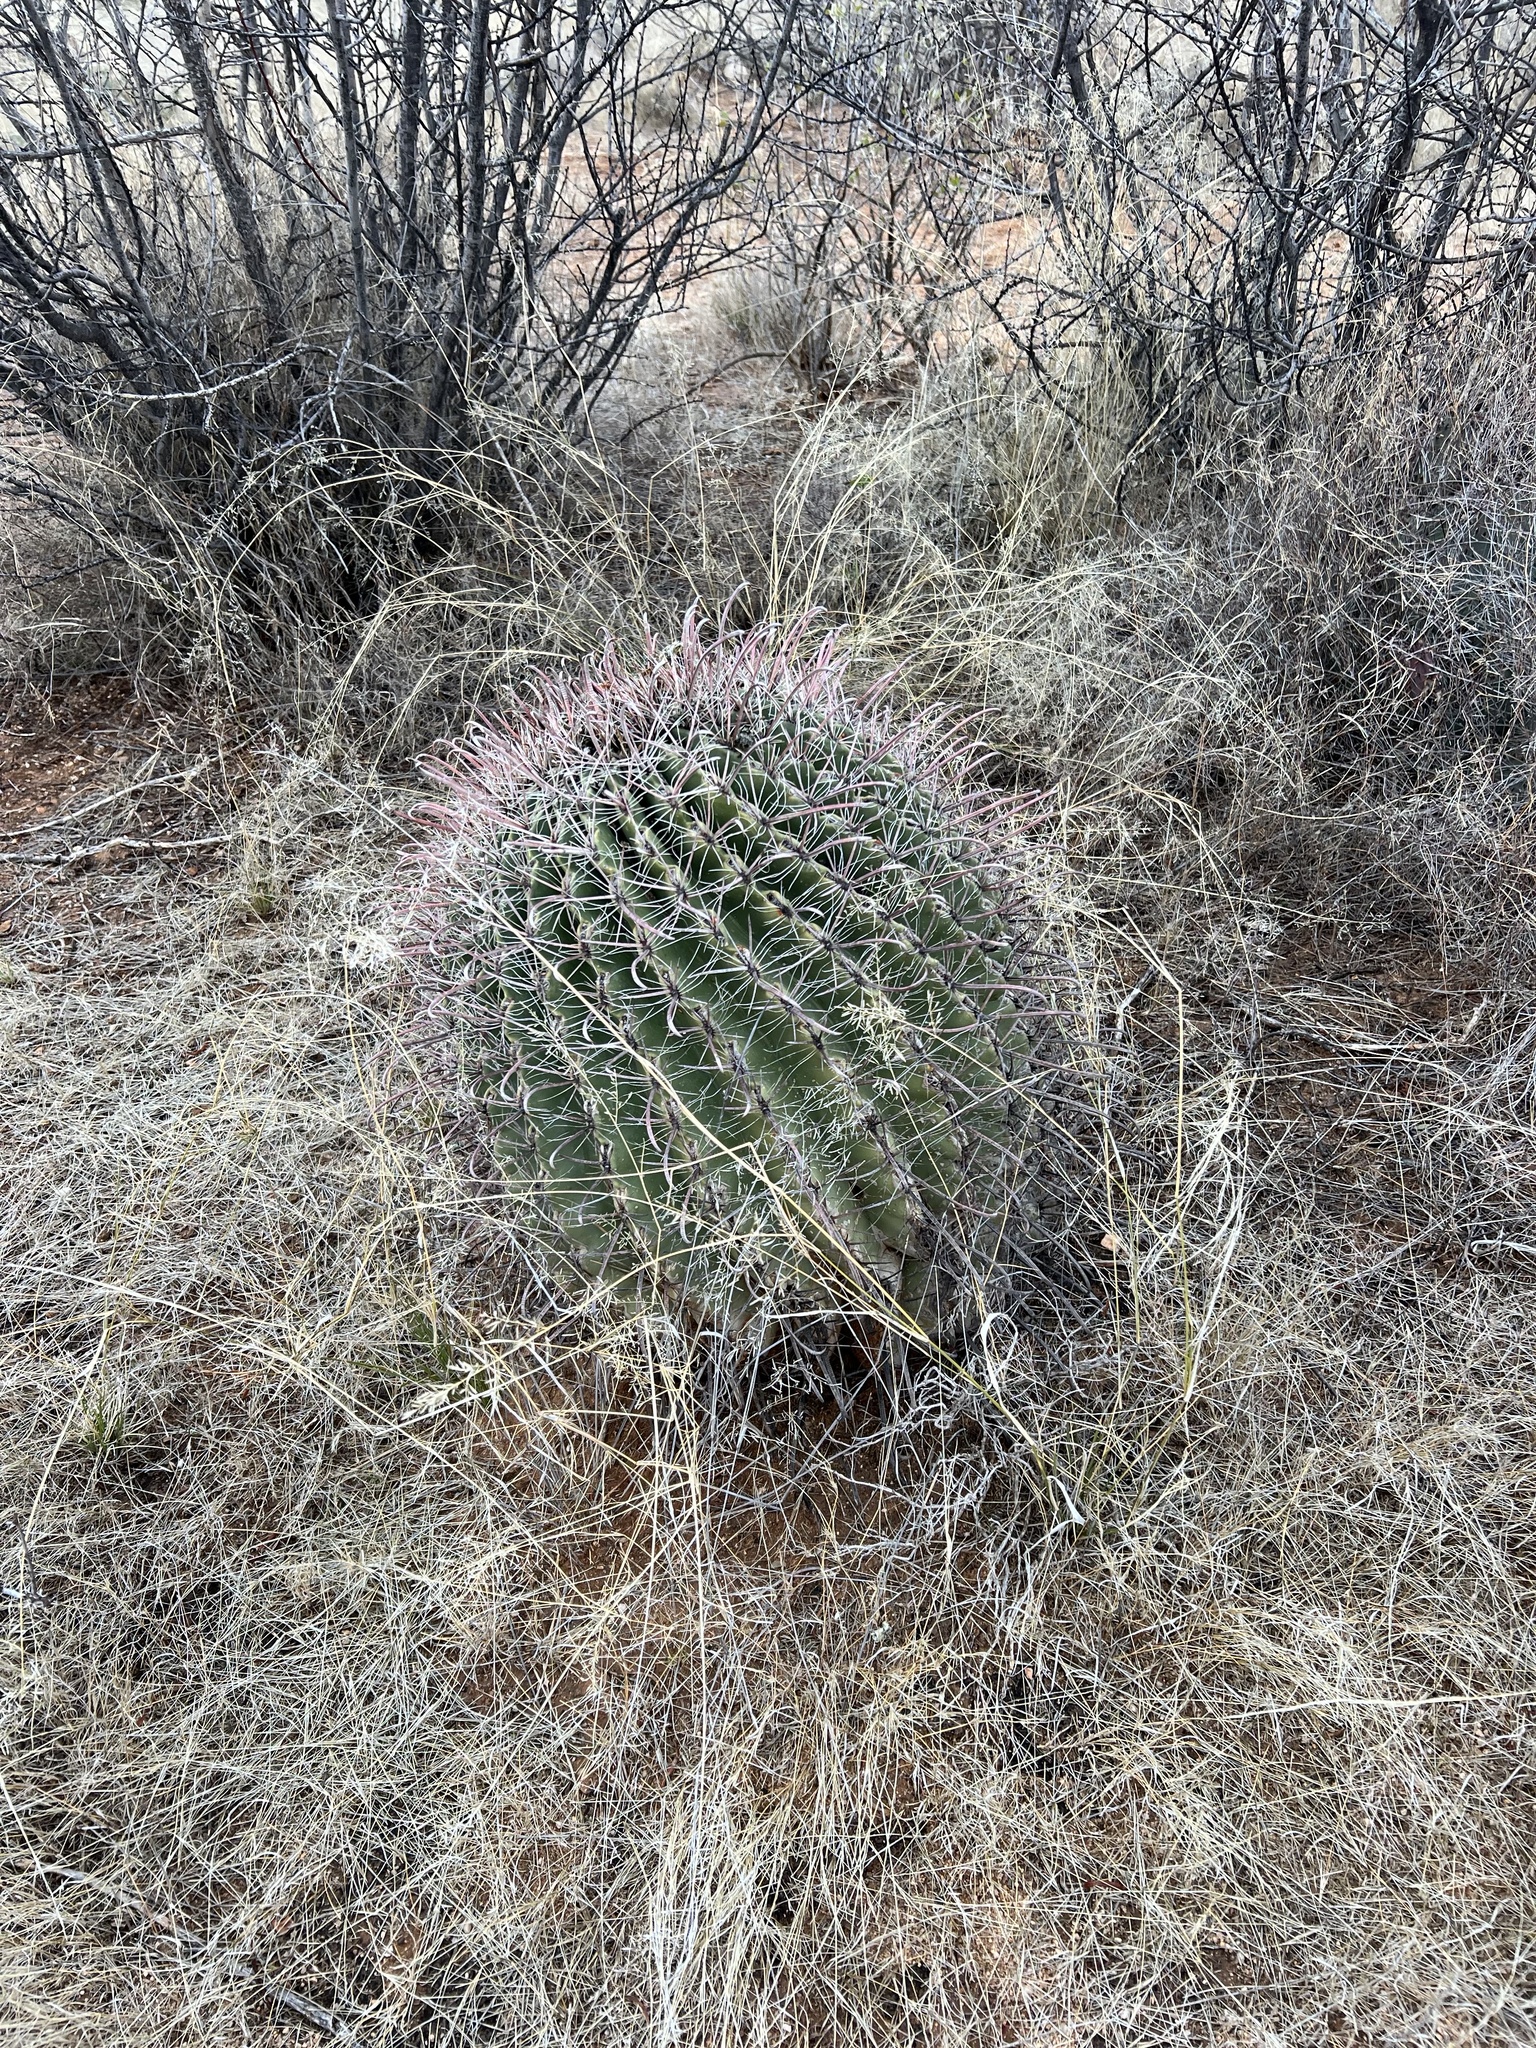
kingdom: Plantae
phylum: Tracheophyta
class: Magnoliopsida
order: Caryophyllales
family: Cactaceae
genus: Ferocactus
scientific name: Ferocactus wislizeni
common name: Candy barrel cactus
